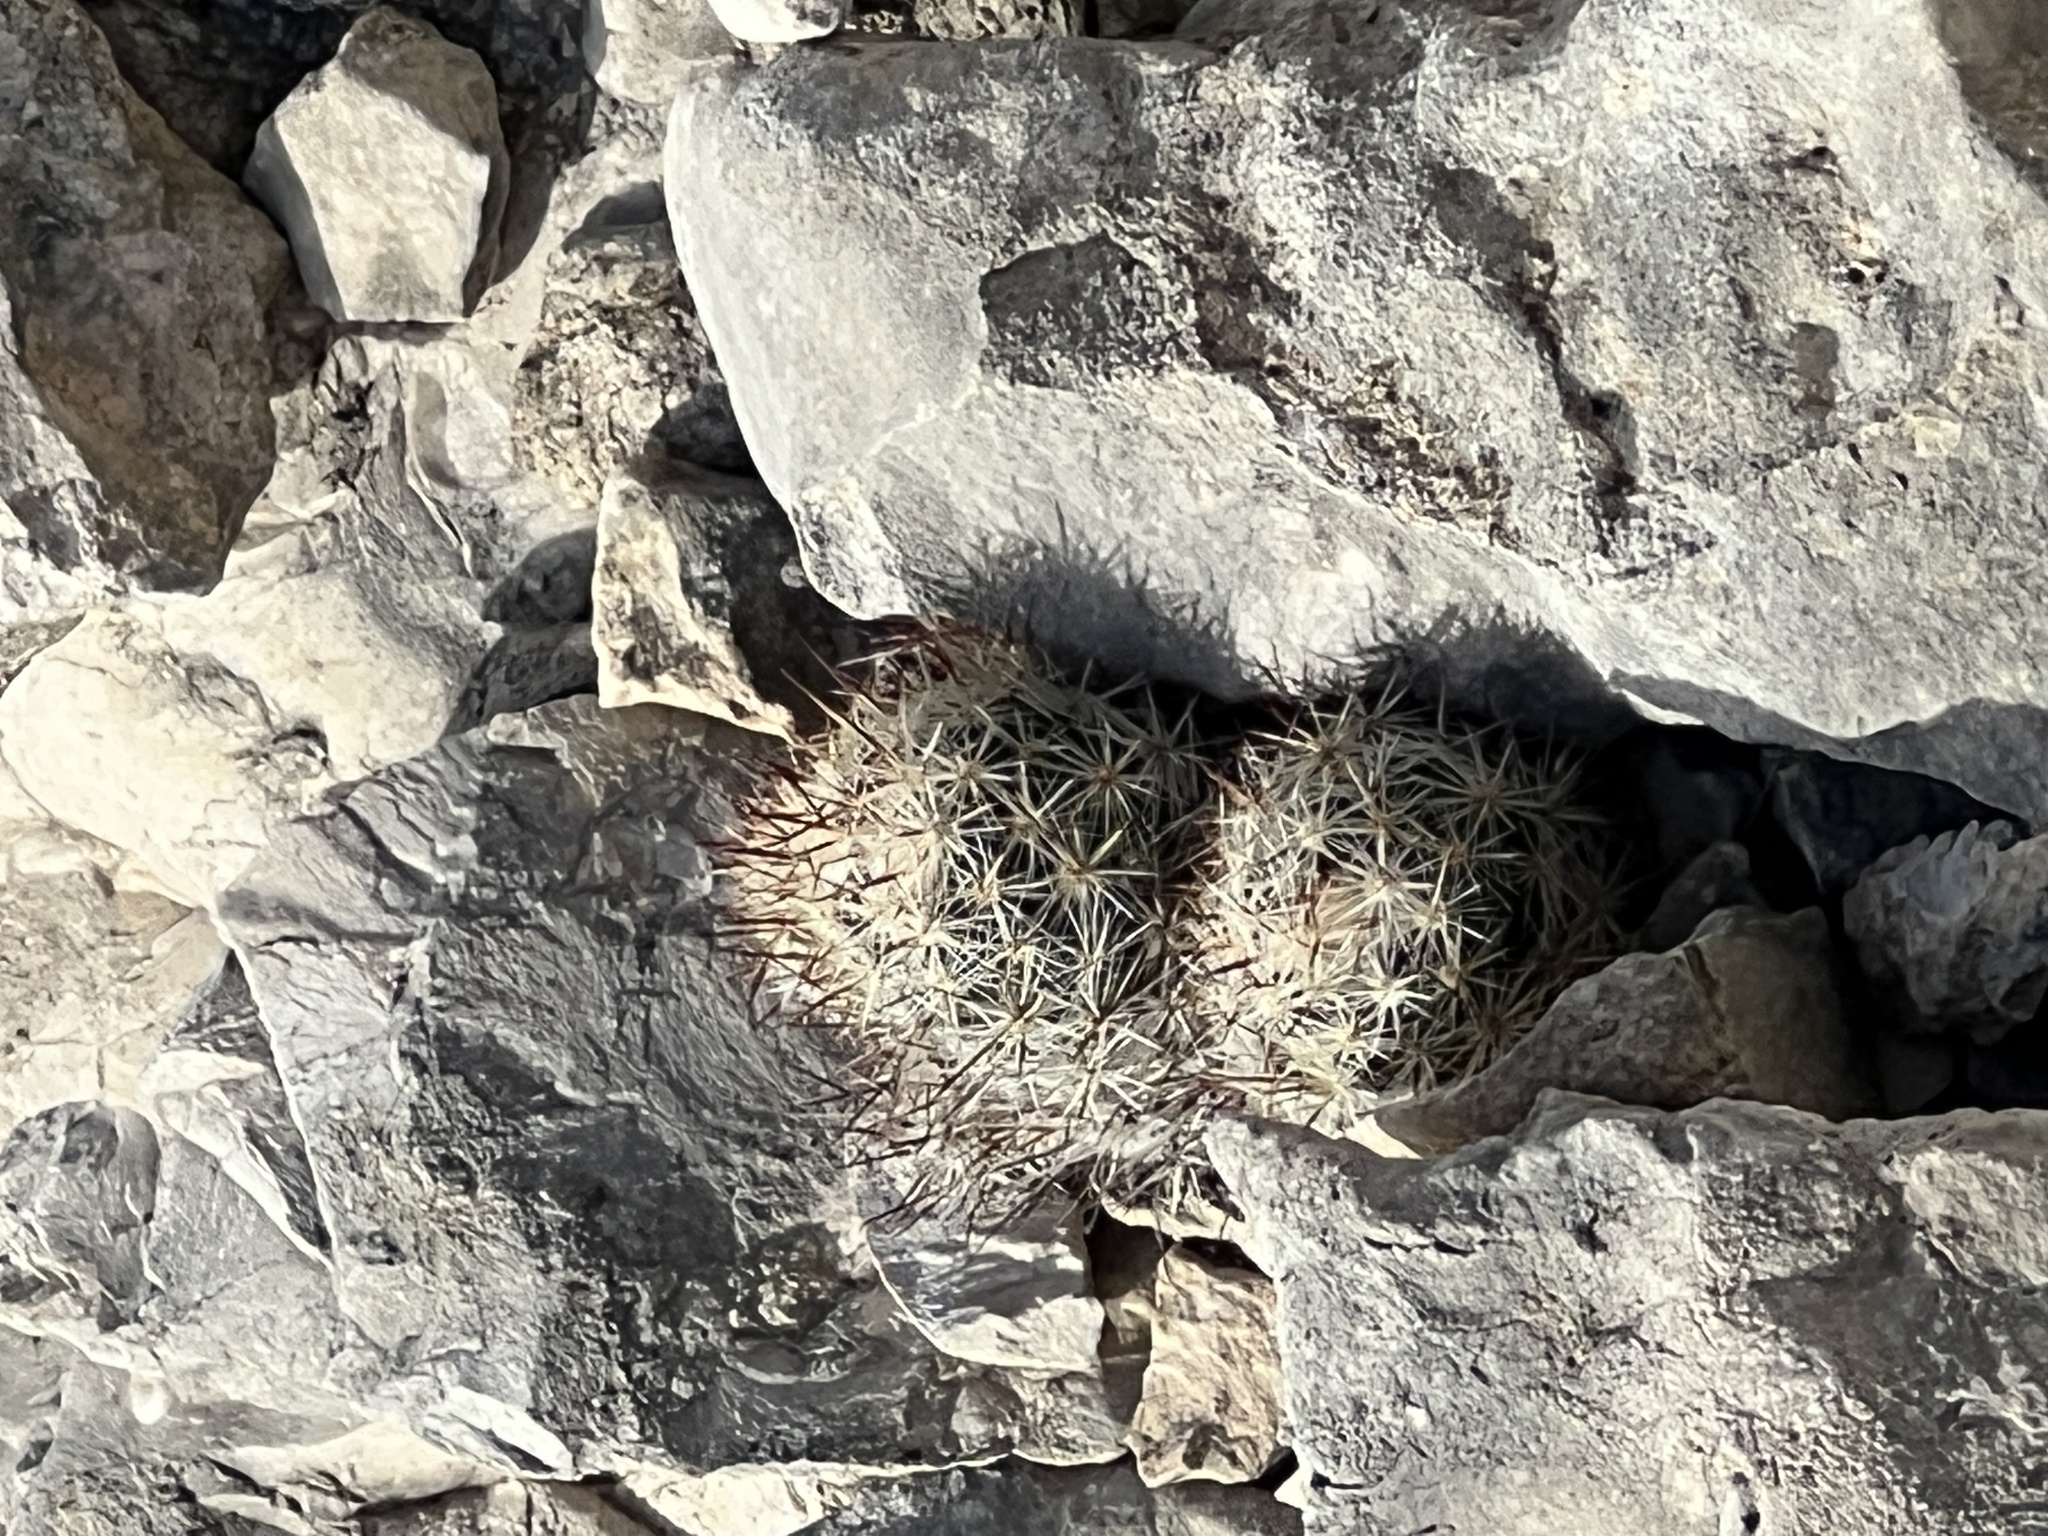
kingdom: Plantae
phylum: Tracheophyta
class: Magnoliopsida
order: Caryophyllales
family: Cactaceae
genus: Pelecyphora
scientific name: Pelecyphora emskoetteriana
